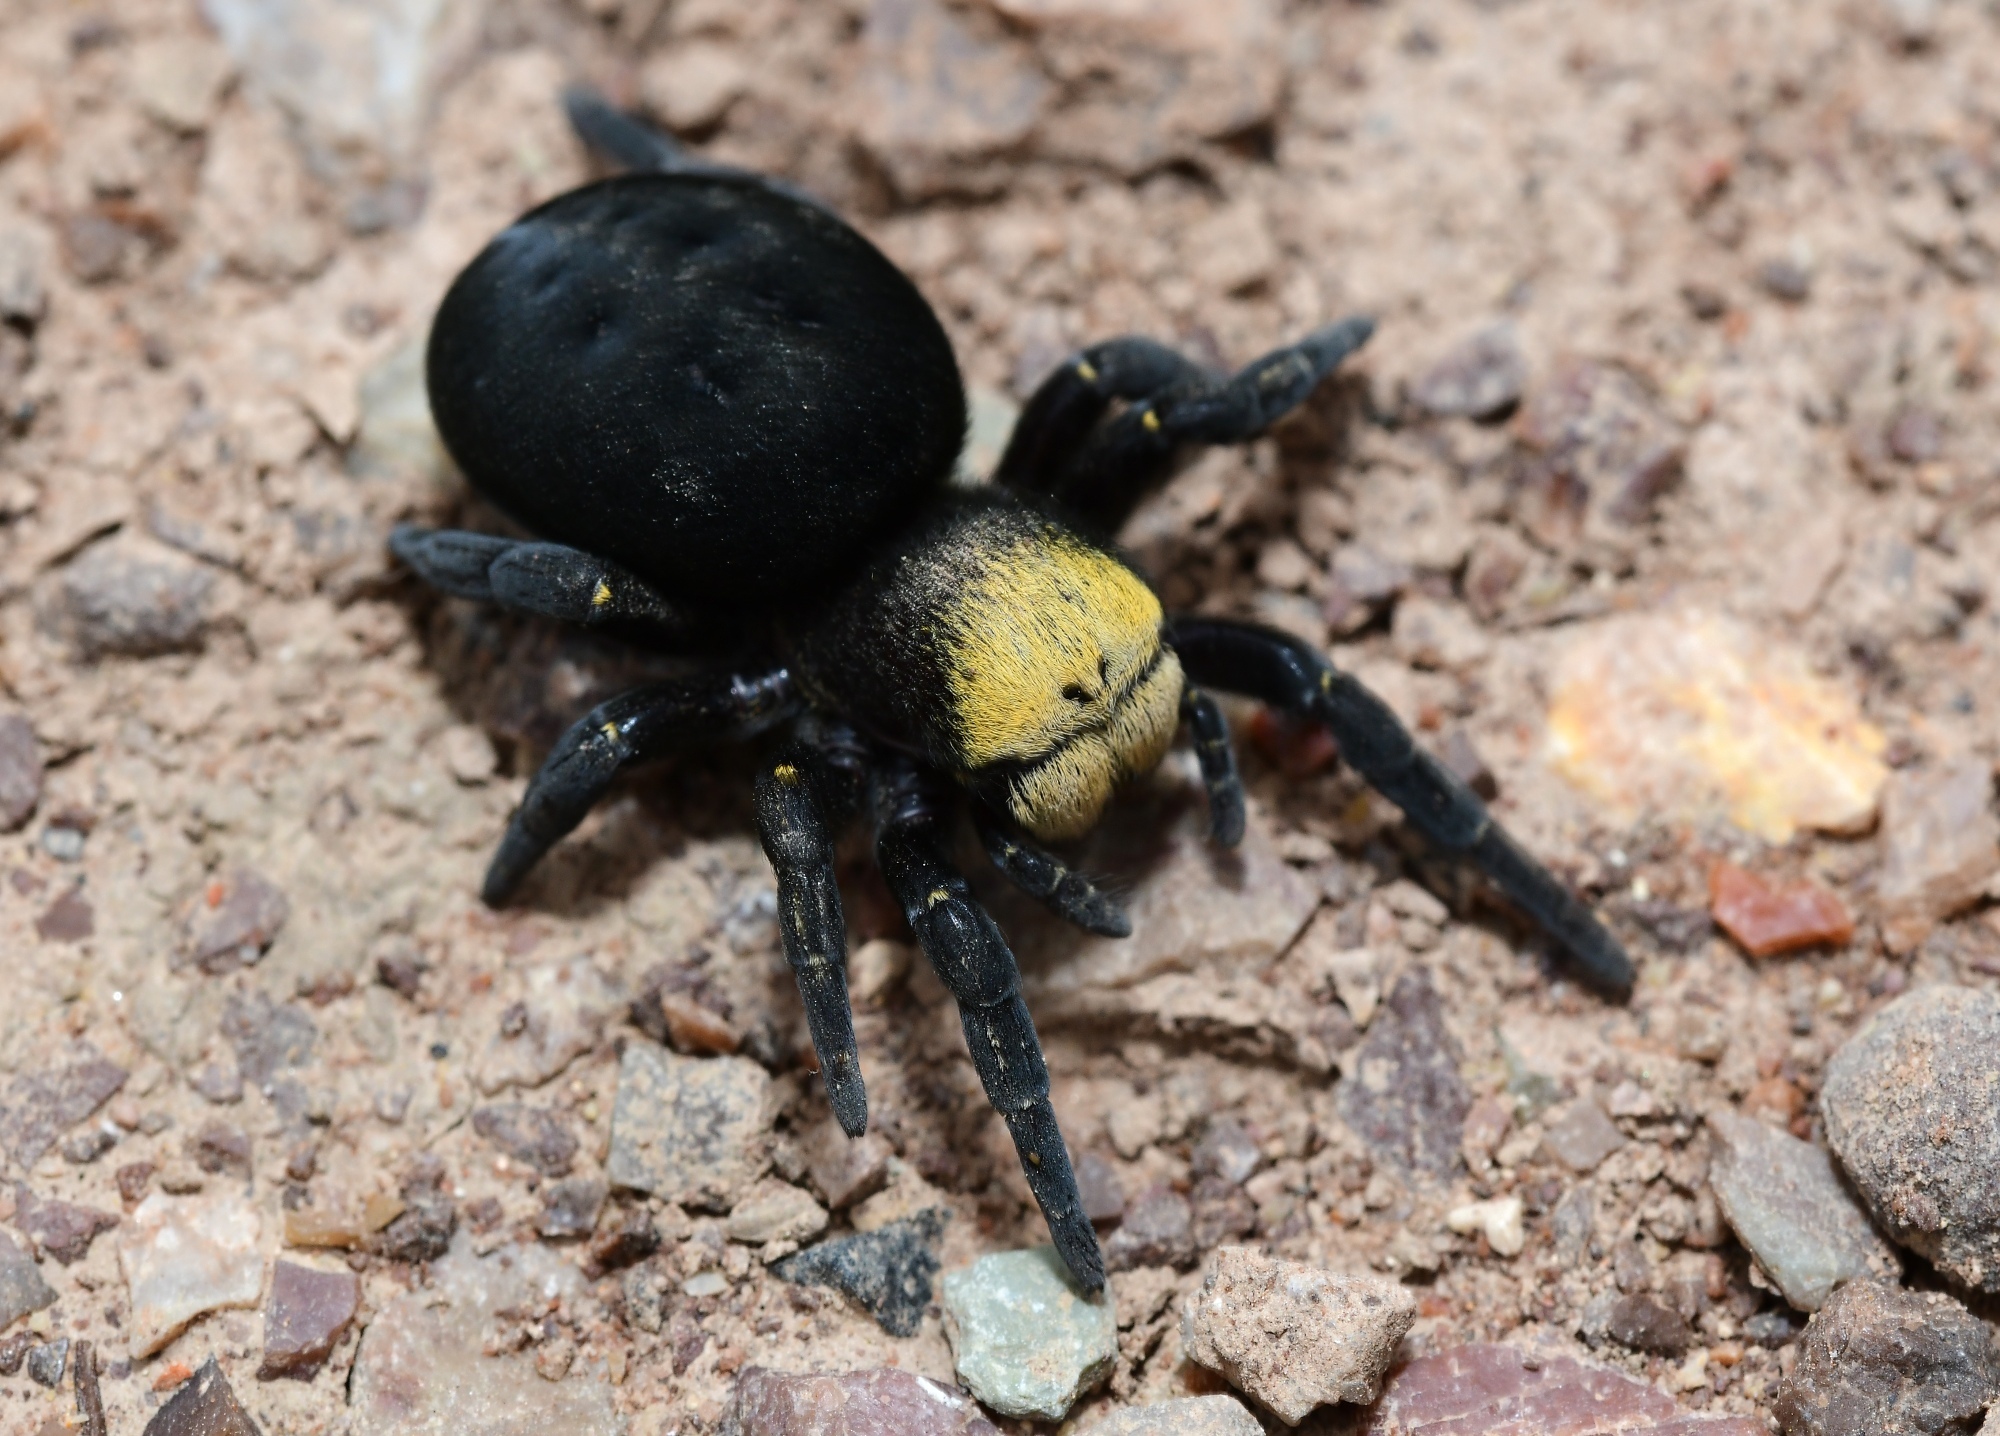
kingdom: Animalia
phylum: Arthropoda
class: Arachnida
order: Araneae
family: Eresidae
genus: Eresus
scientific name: Eresus moravicus
